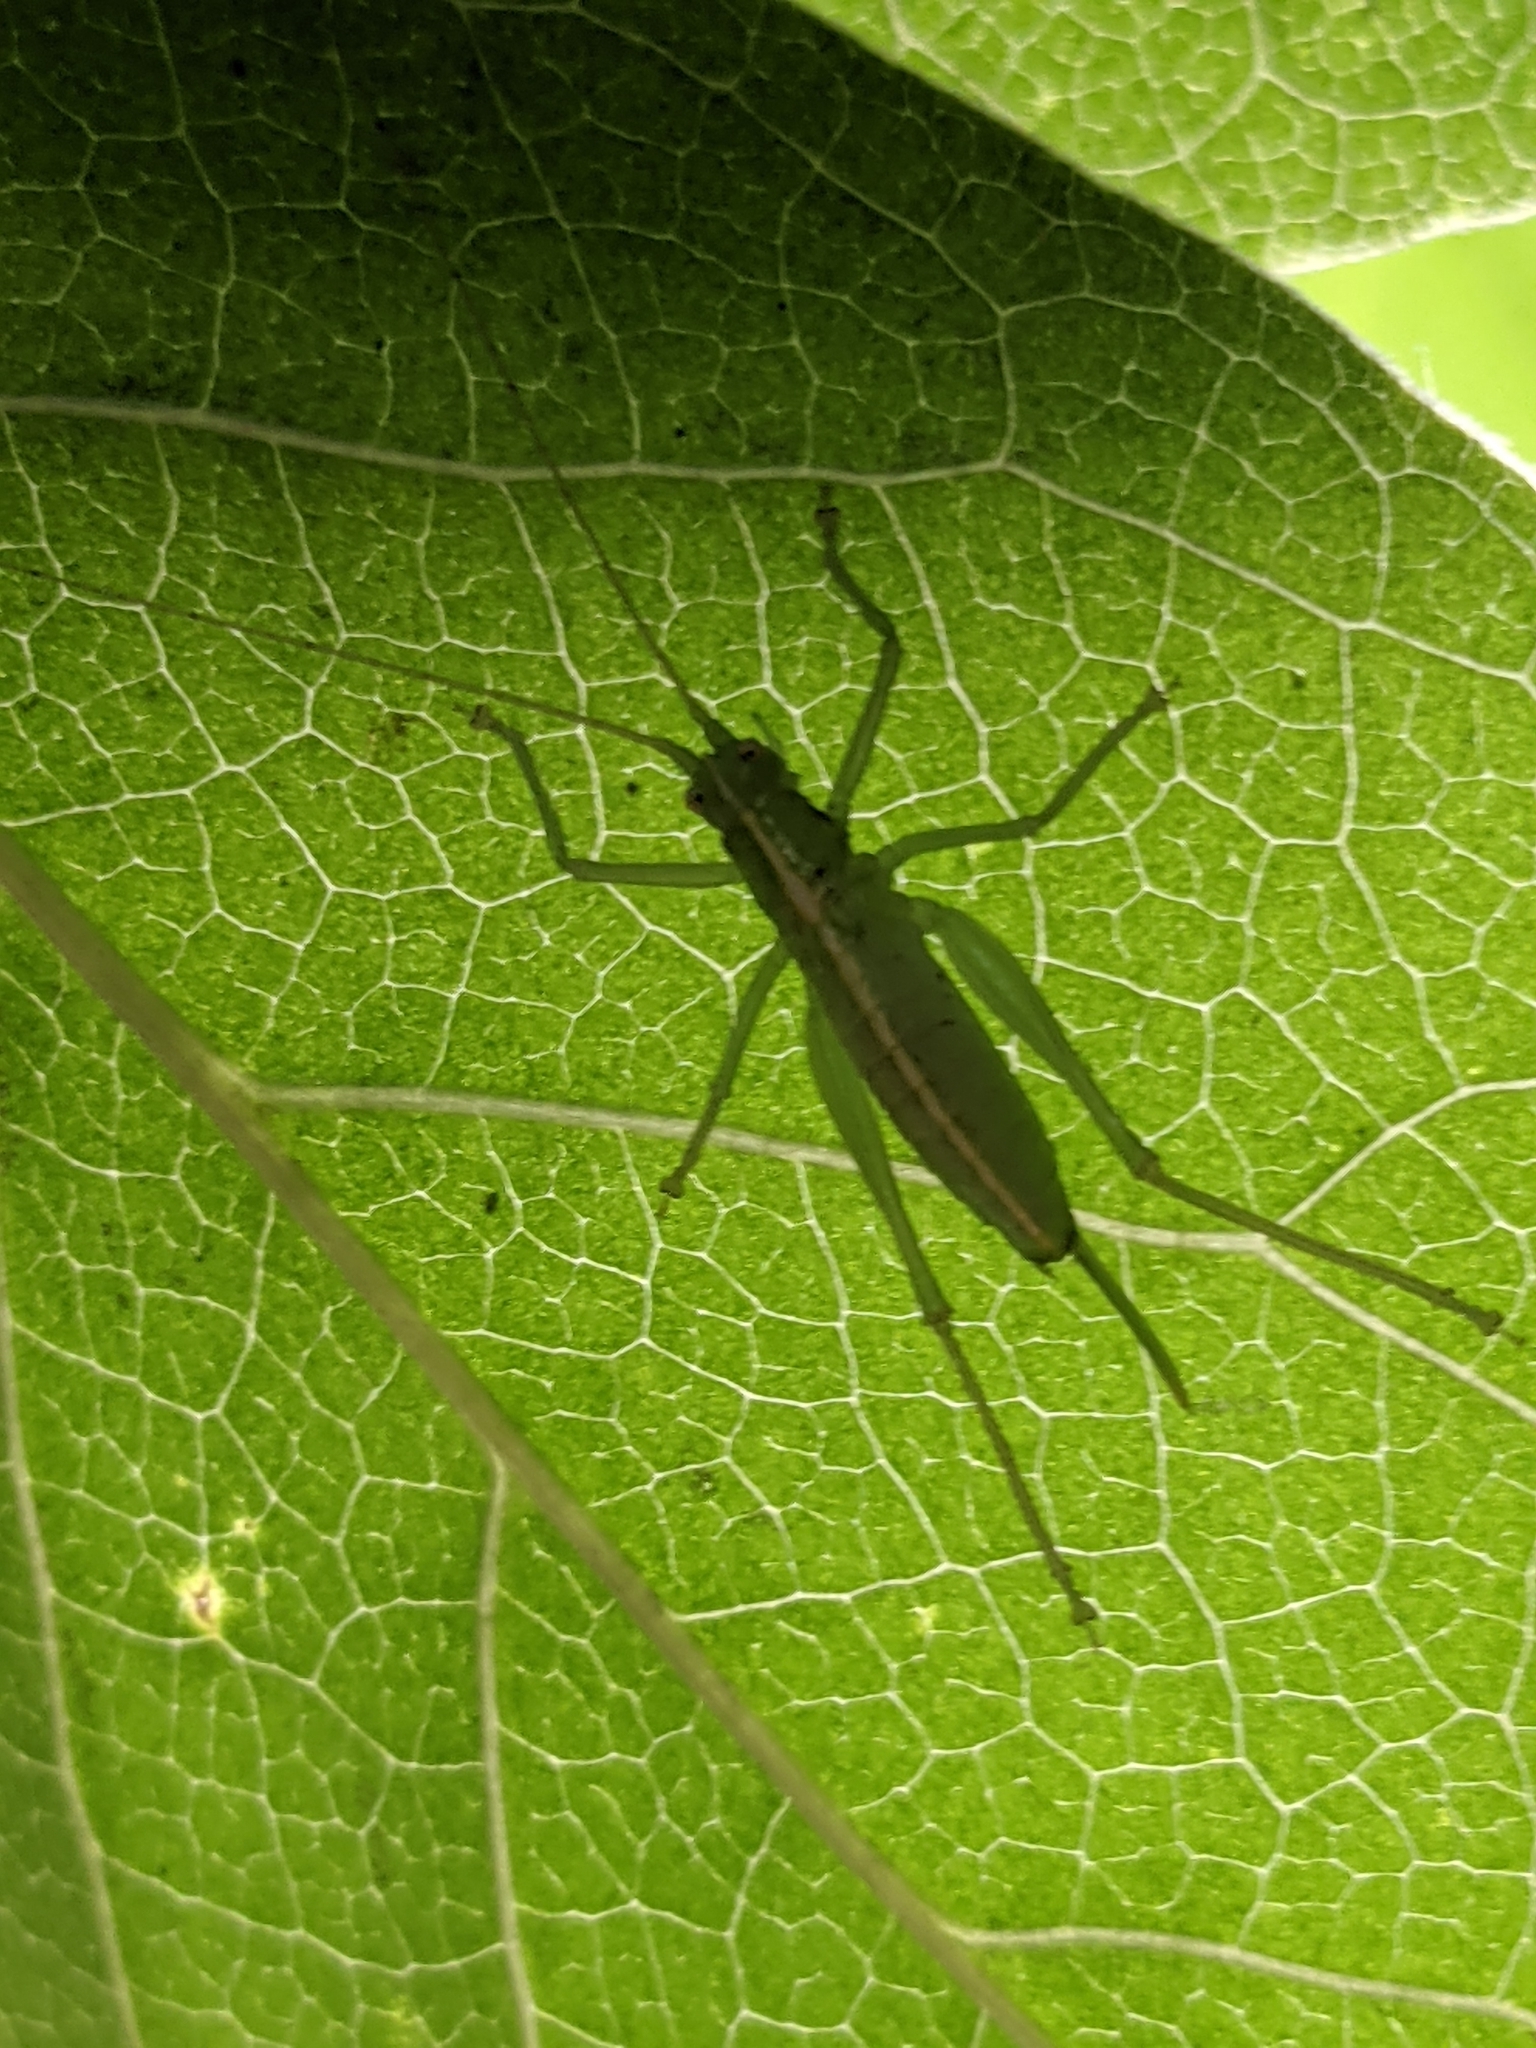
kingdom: Animalia
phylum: Arthropoda
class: Insecta
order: Orthoptera
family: Tettigoniidae
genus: Meconema
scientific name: Meconema meridionale
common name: Southern oak bush-cricket
